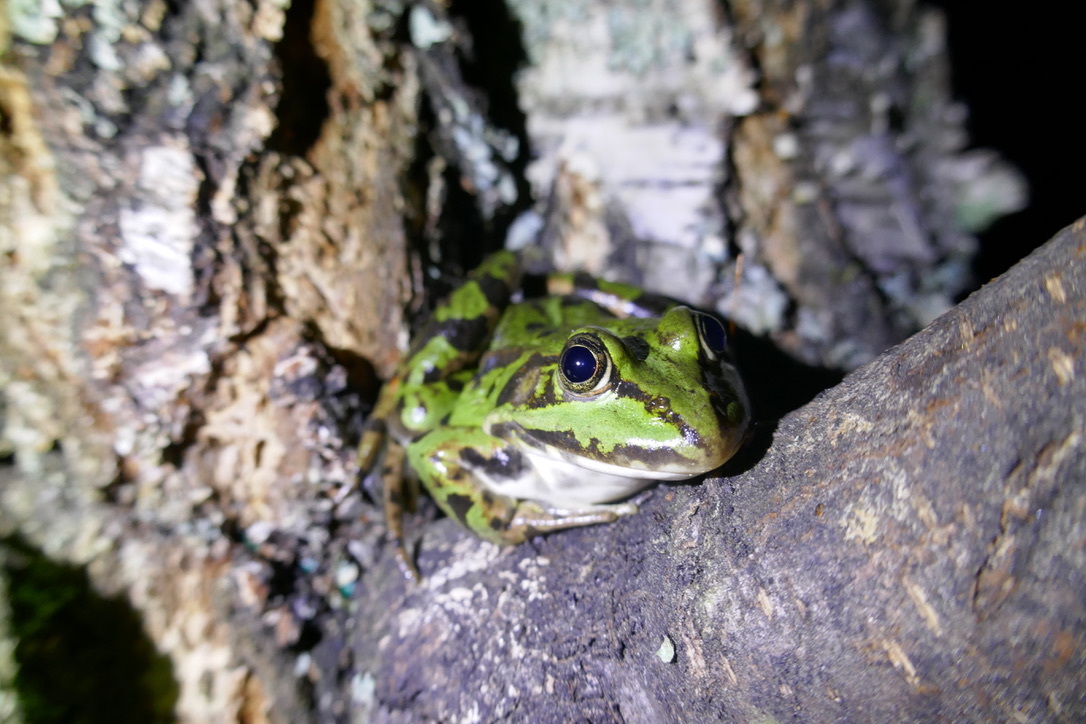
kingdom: Animalia
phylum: Chordata
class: Amphibia
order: Anura
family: Ranidae
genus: Pelophylax
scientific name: Pelophylax
